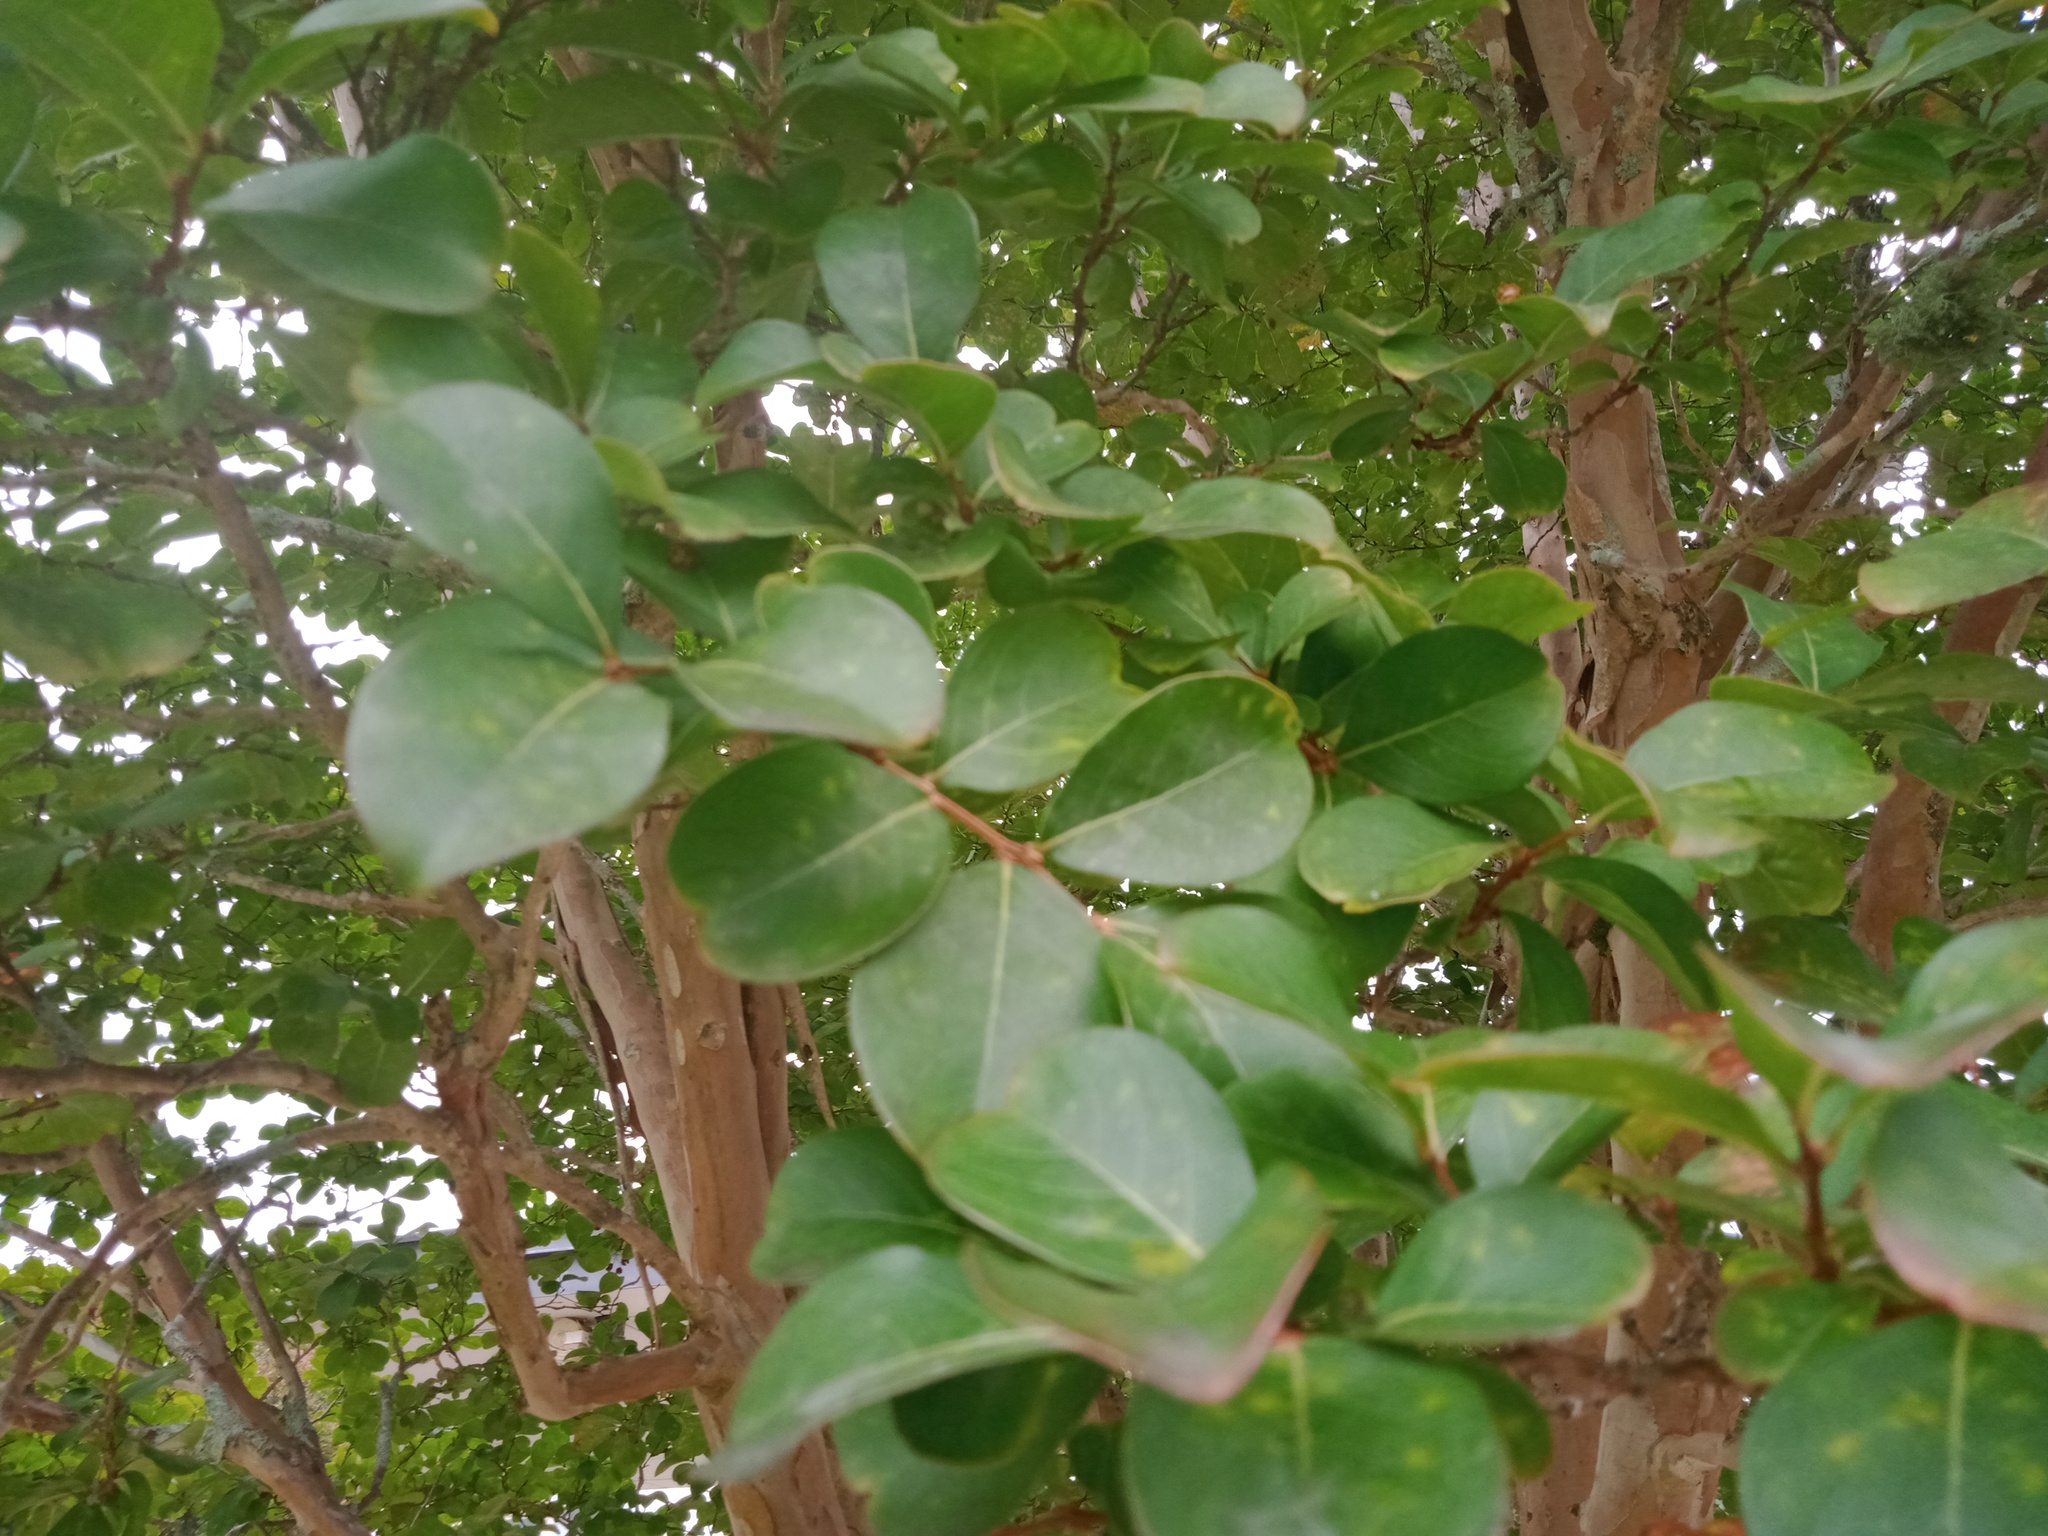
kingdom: Animalia
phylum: Arthropoda
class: Insecta
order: Coleoptera
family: Coccinellidae
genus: Harmonia
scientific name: Harmonia conformis
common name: Common spotted ladybird beetle
